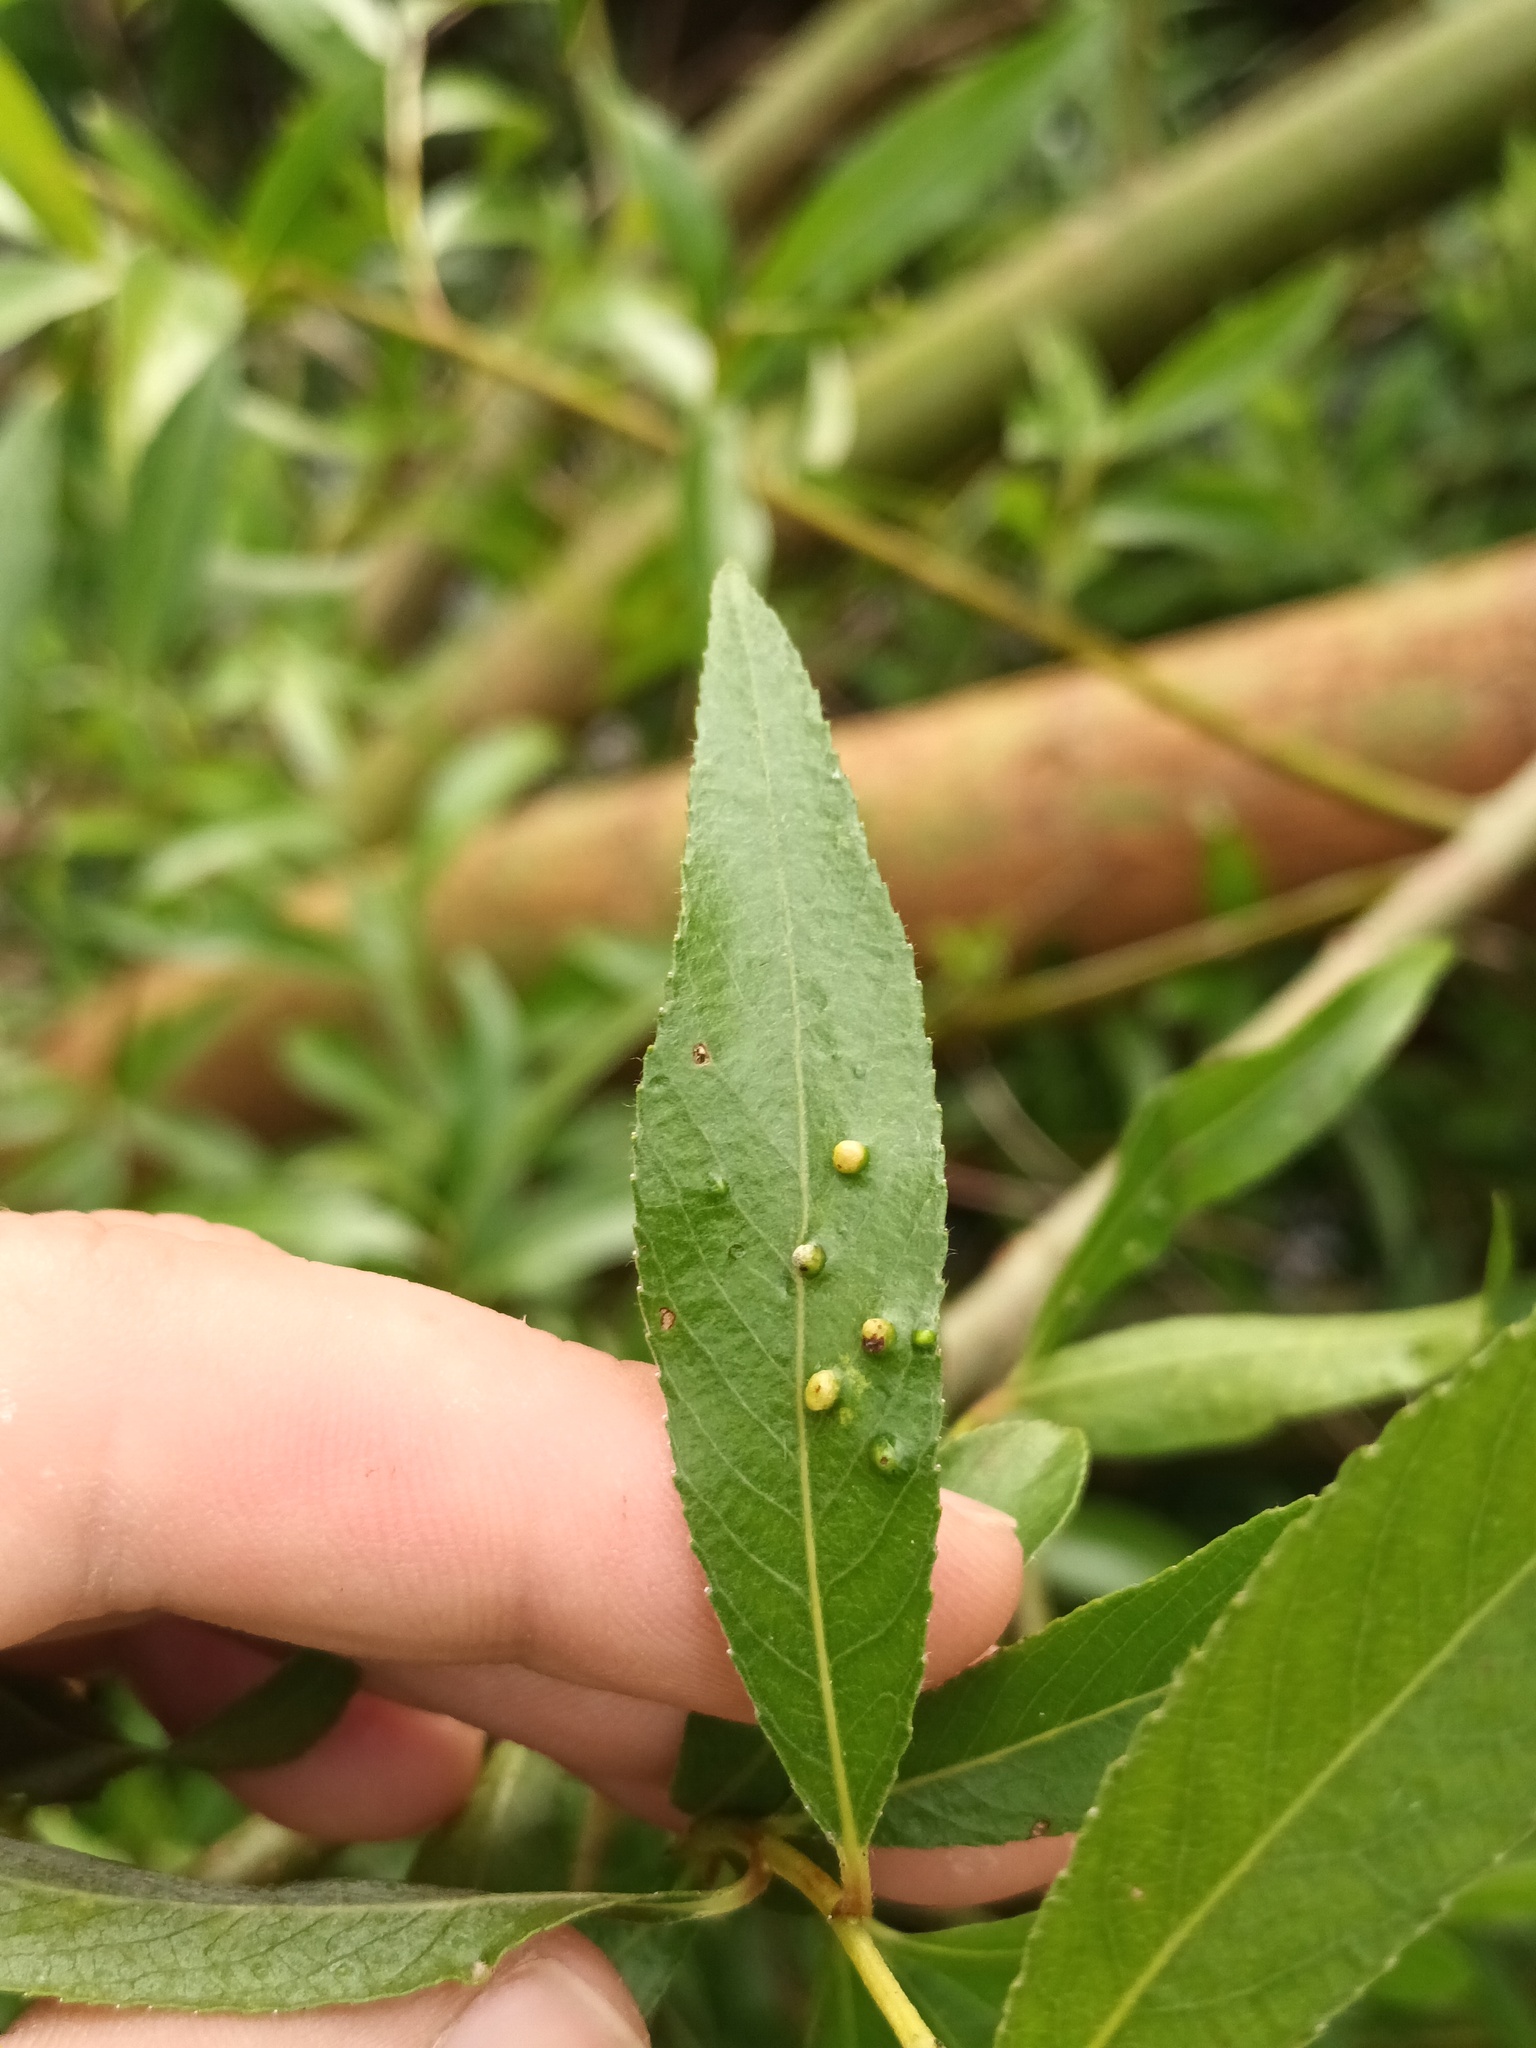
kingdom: Animalia
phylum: Arthropoda
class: Arachnida
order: Trombidiformes
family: Eriophyidae
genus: Aculus
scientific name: Aculus tetanothrix
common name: Willow bead gall mite
